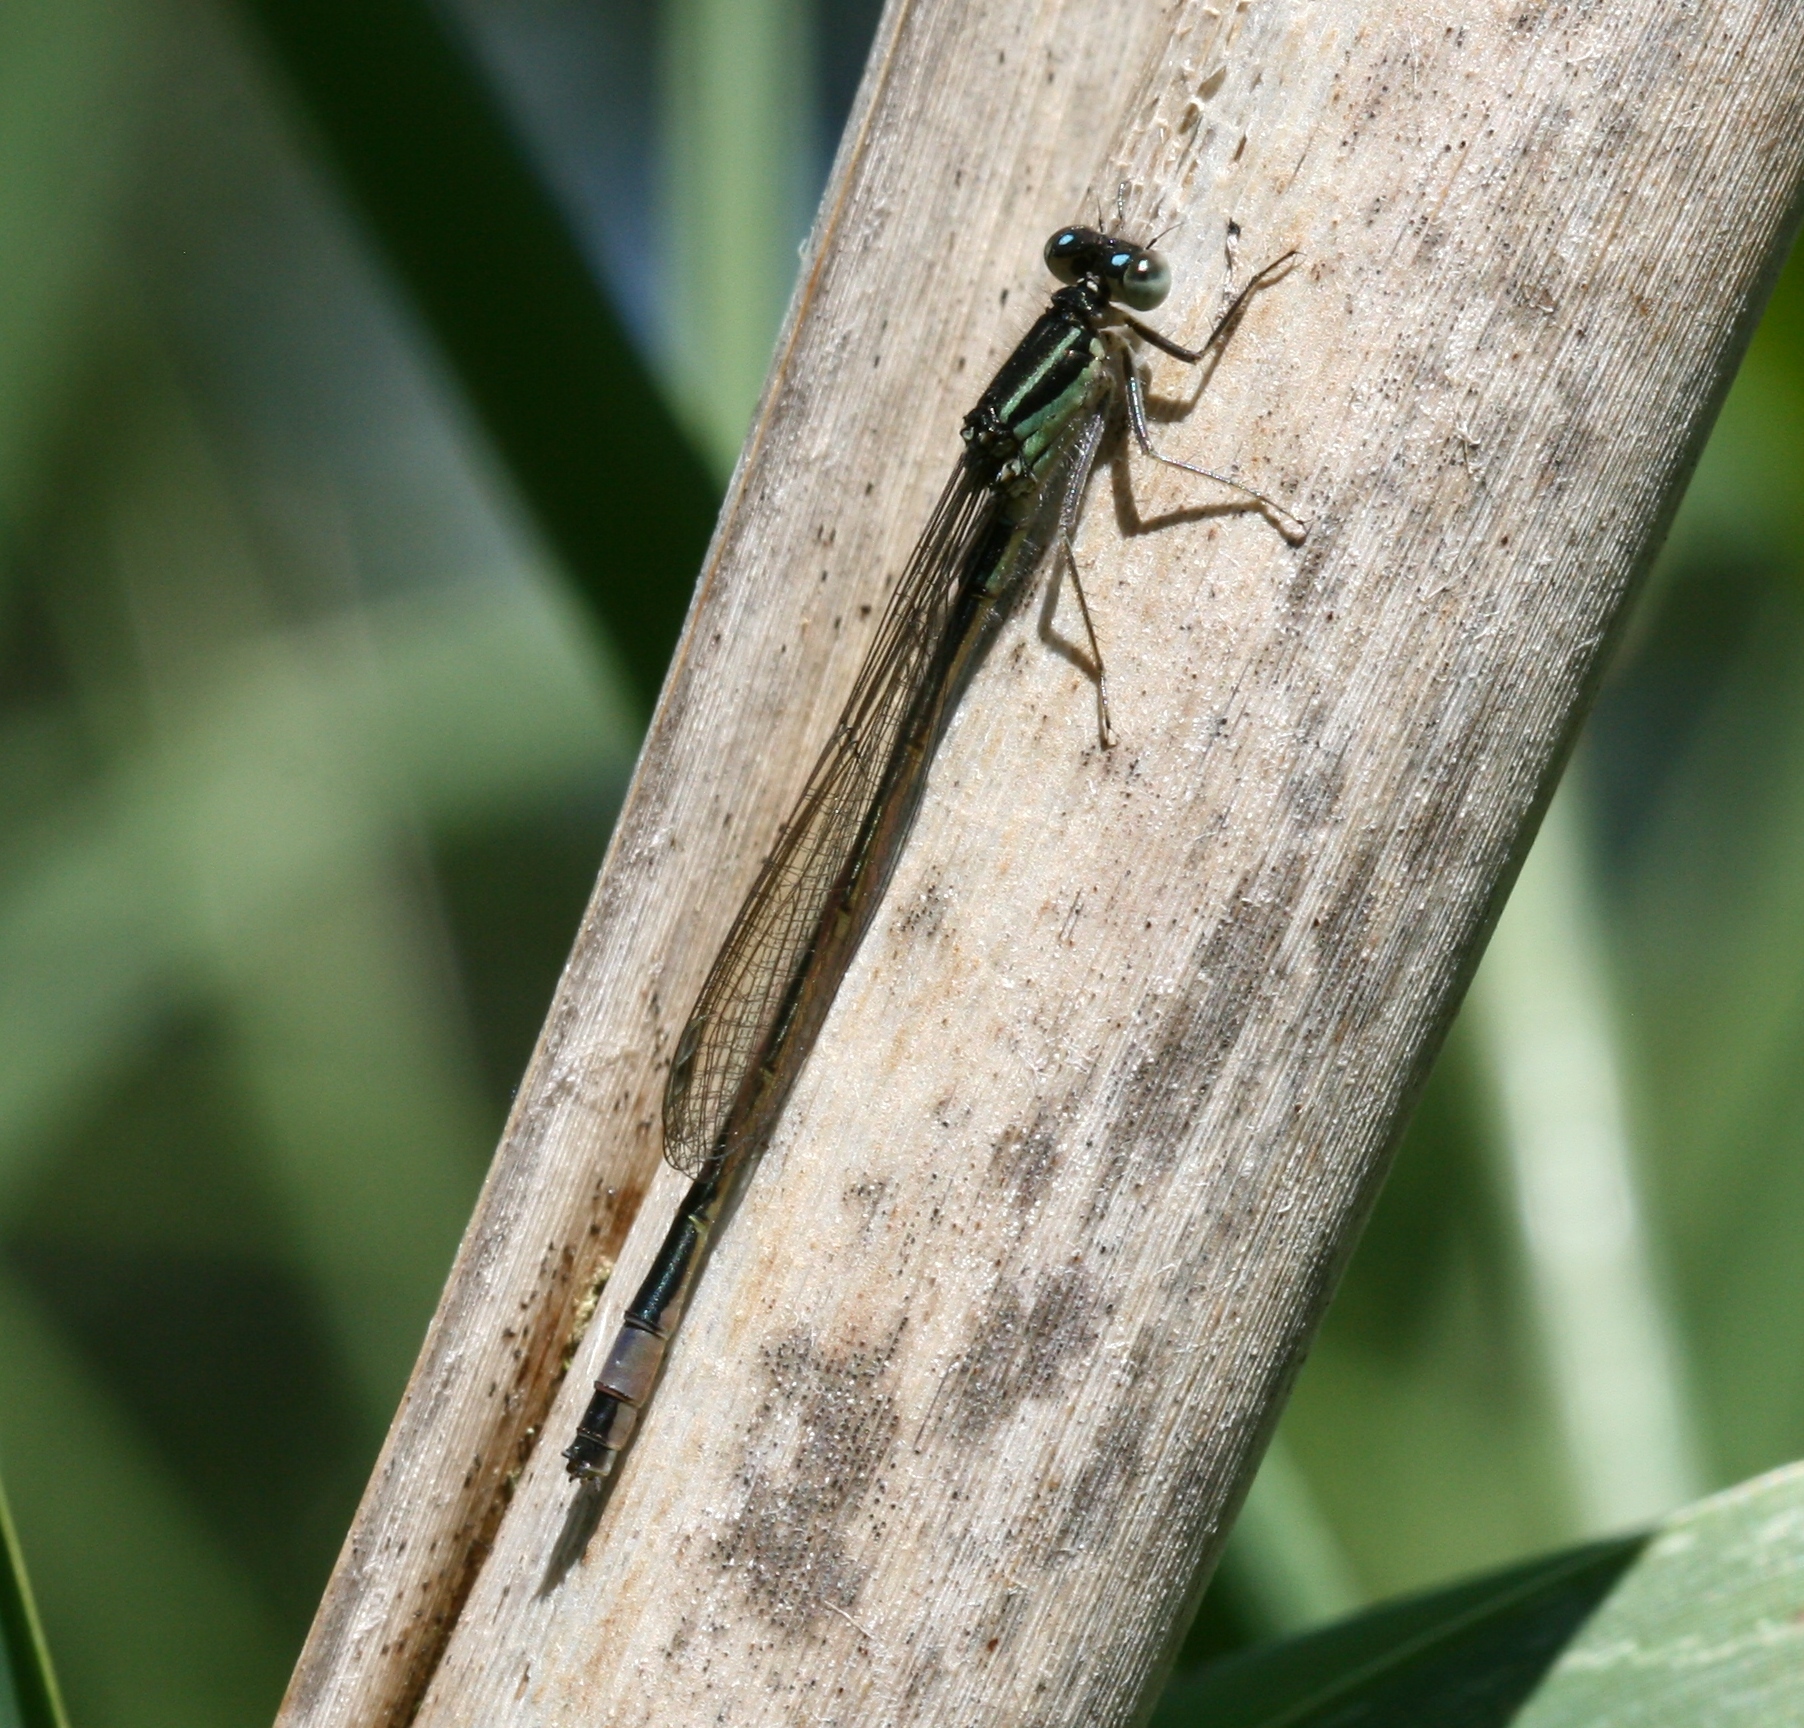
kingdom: Animalia
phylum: Arthropoda
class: Insecta
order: Odonata
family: Coenagrionidae
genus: Ischnura
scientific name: Ischnura elegans
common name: Blue-tailed damselfly
